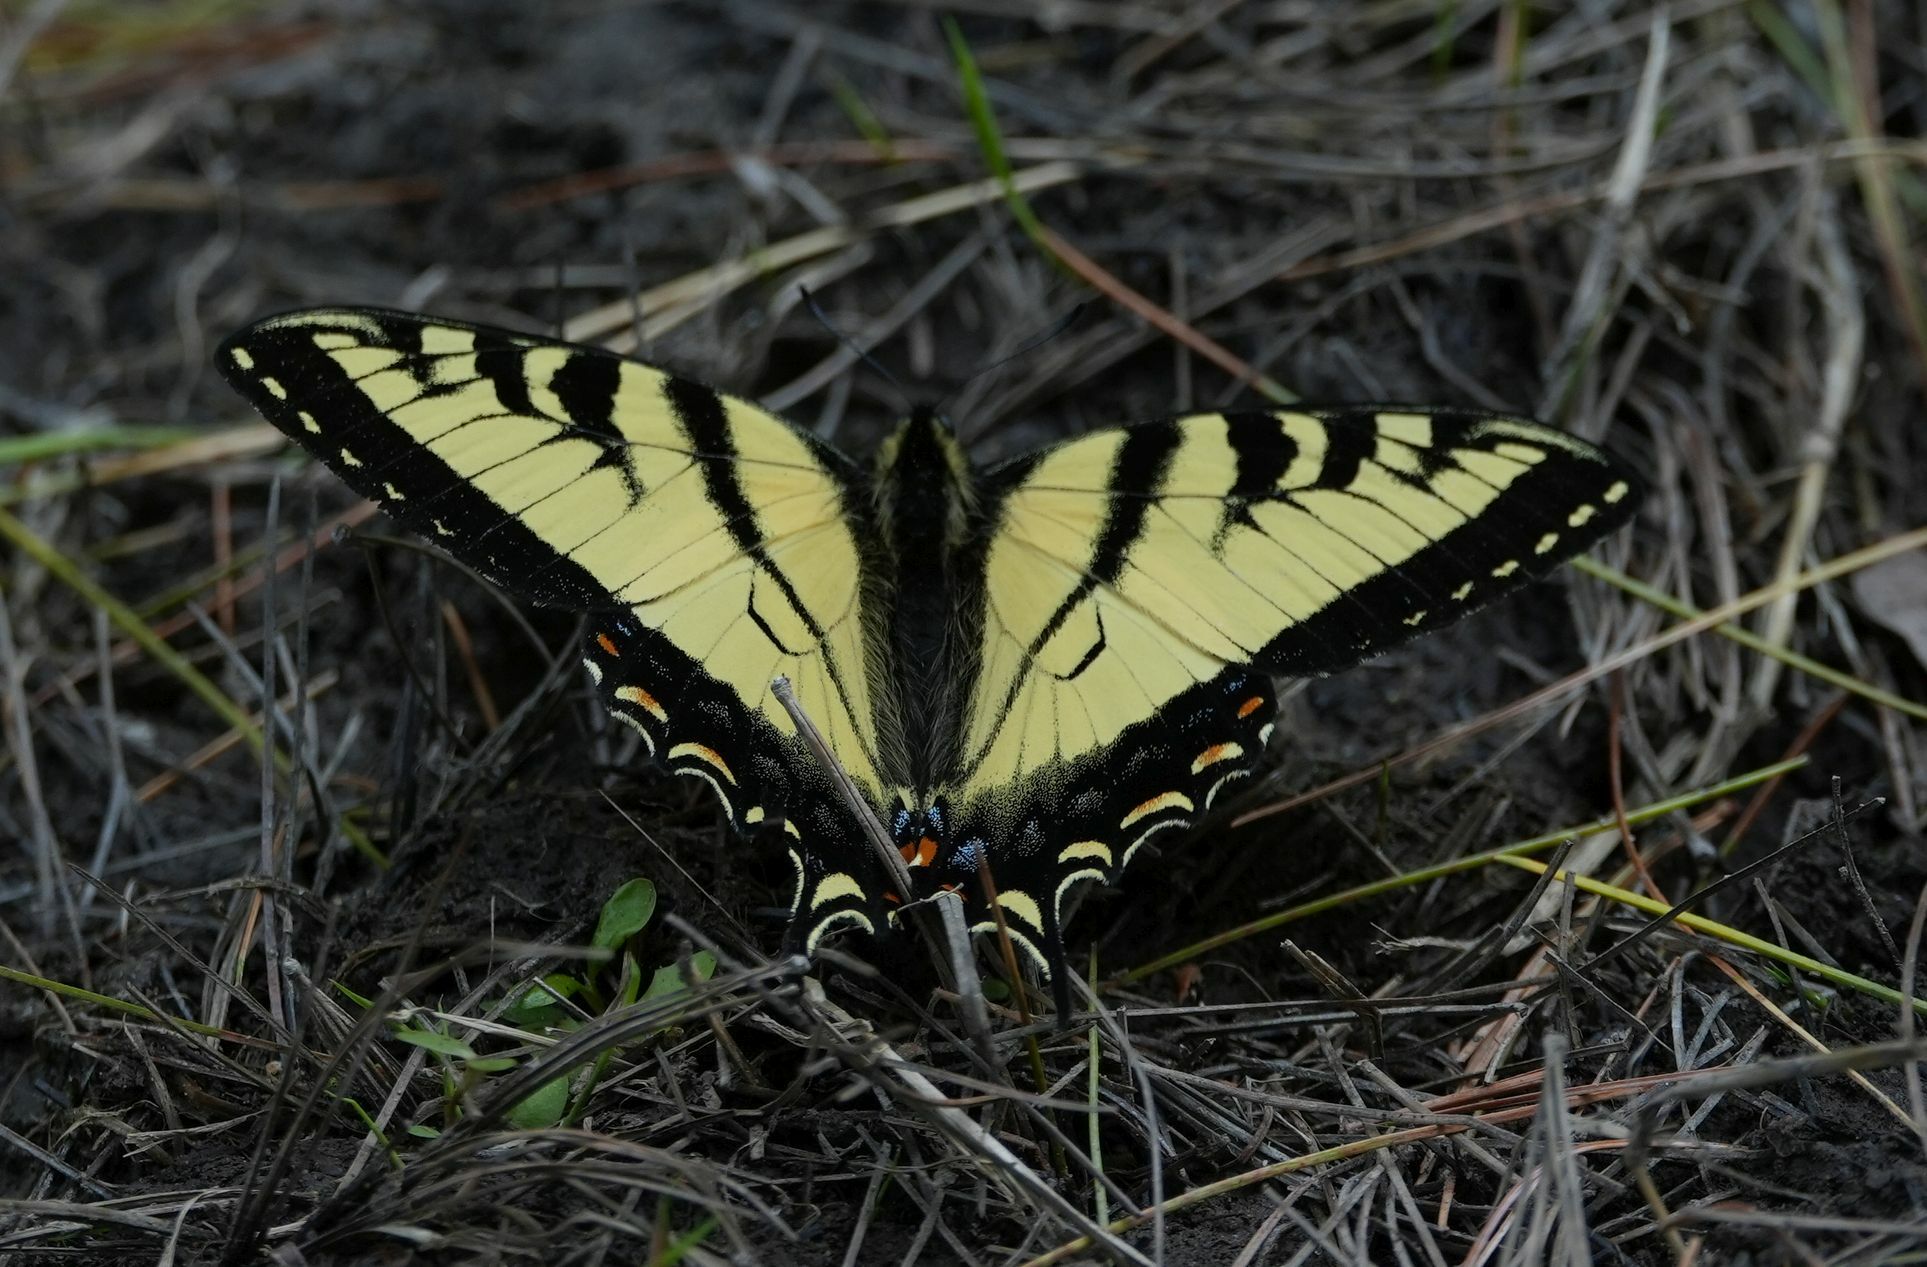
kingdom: Animalia
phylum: Arthropoda
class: Insecta
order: Lepidoptera
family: Papilionidae
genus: Papilio
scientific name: Papilio canadensis
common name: Canadian tiger swallowtail
